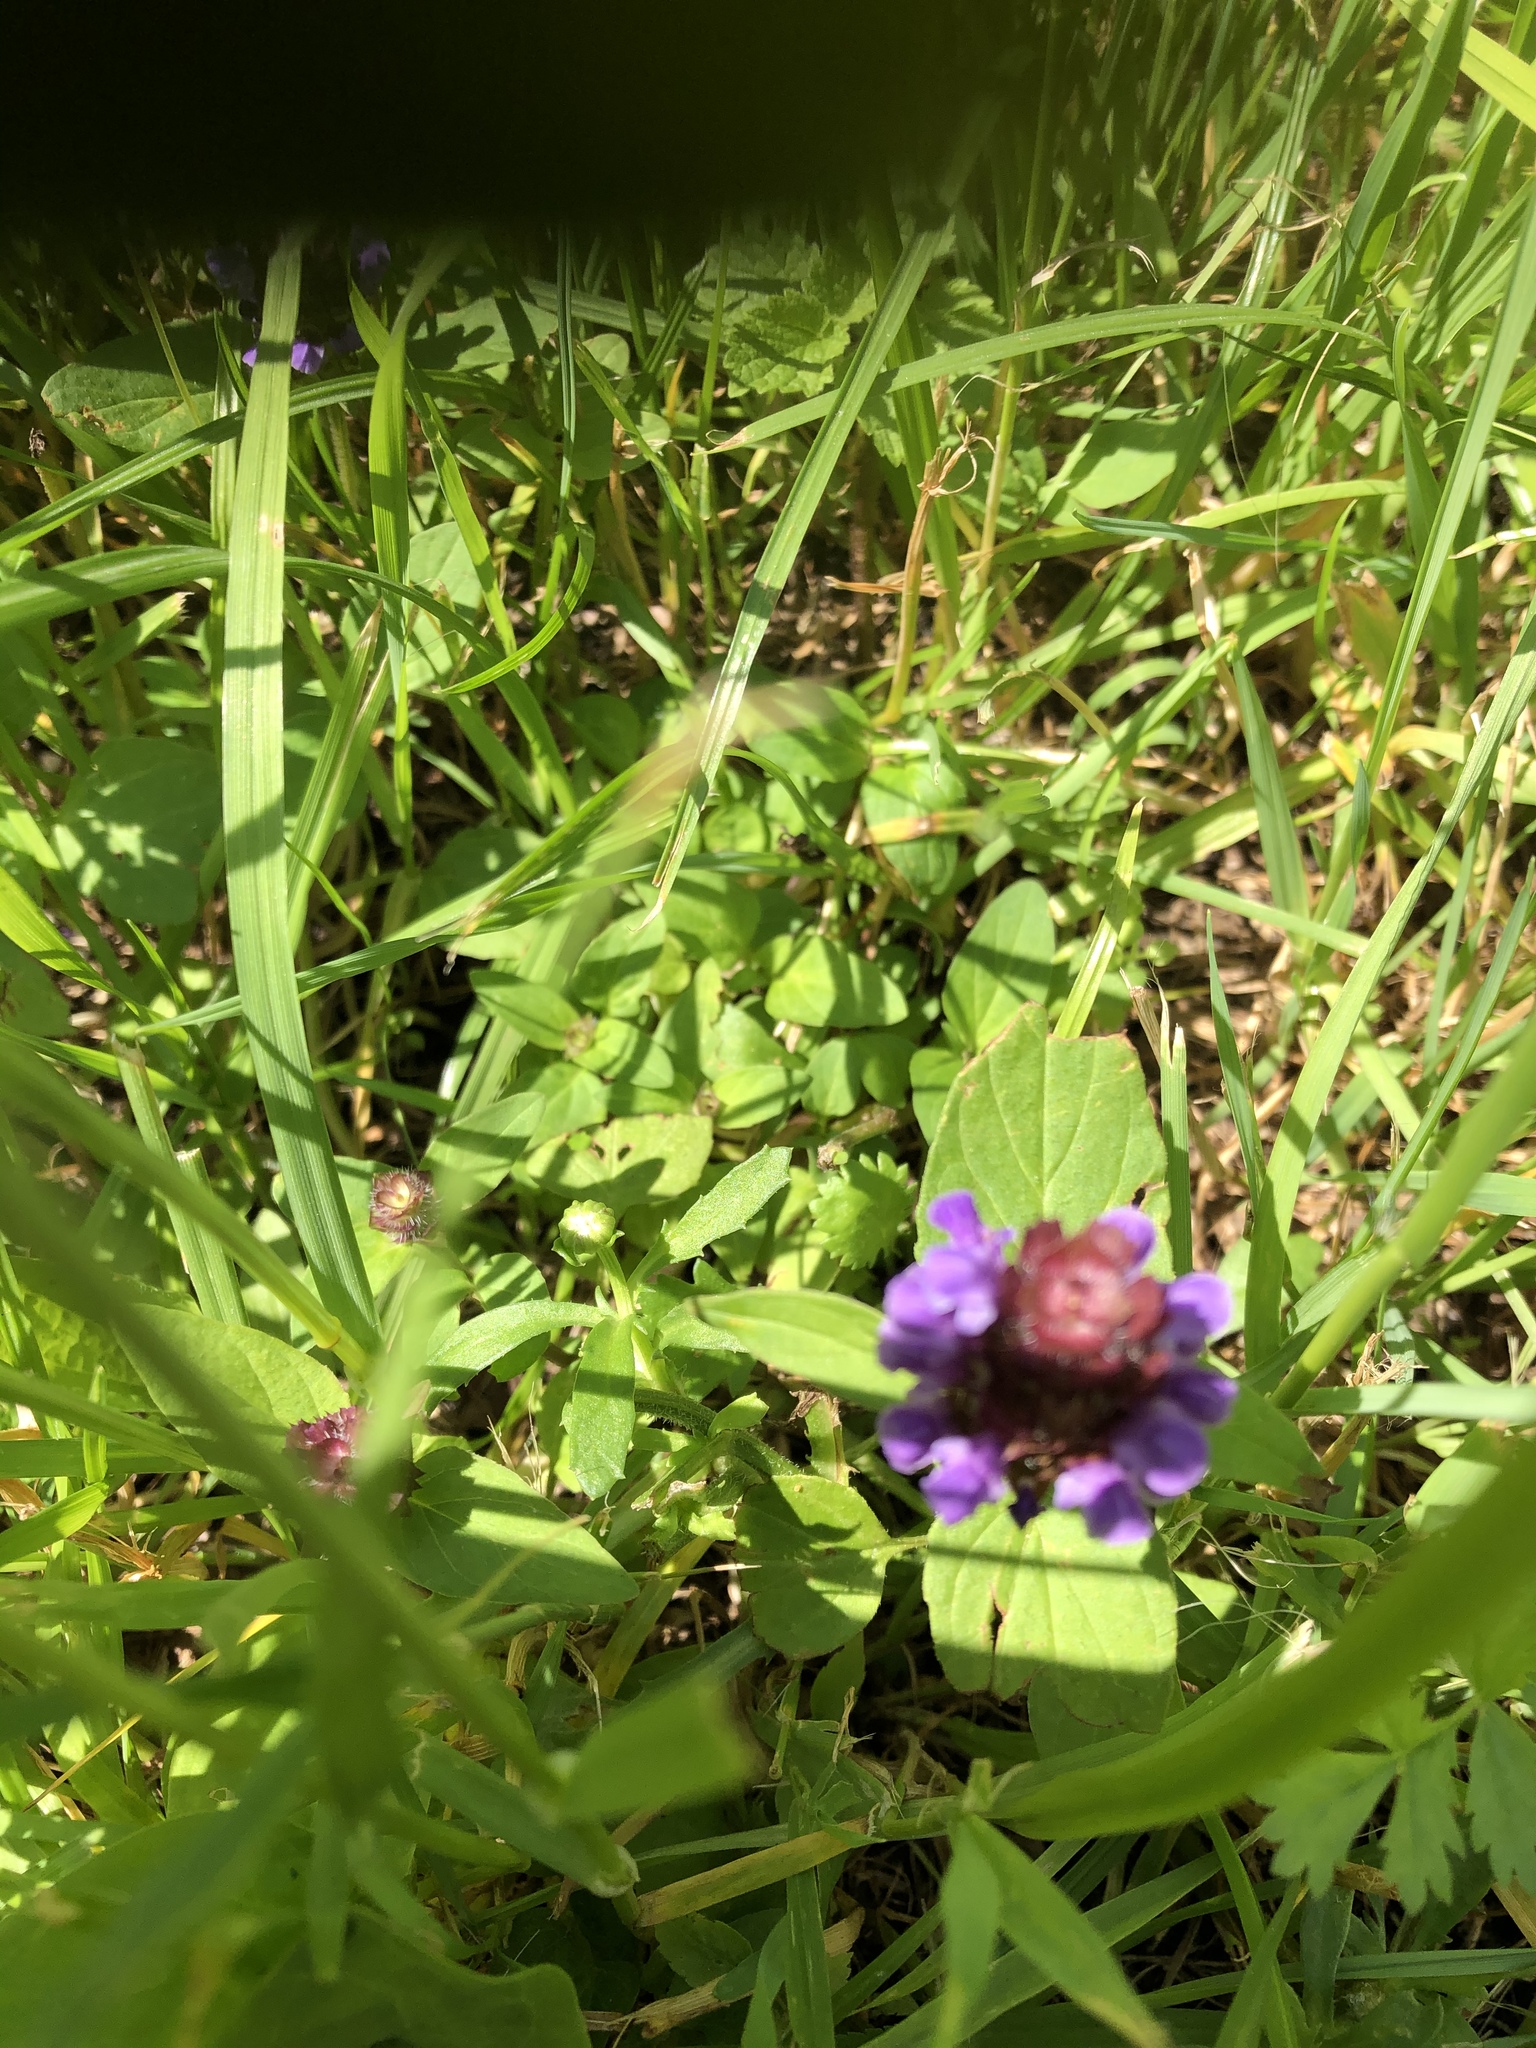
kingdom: Plantae
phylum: Tracheophyta
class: Magnoliopsida
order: Lamiales
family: Lamiaceae
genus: Prunella
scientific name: Prunella vulgaris
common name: Heal-all
